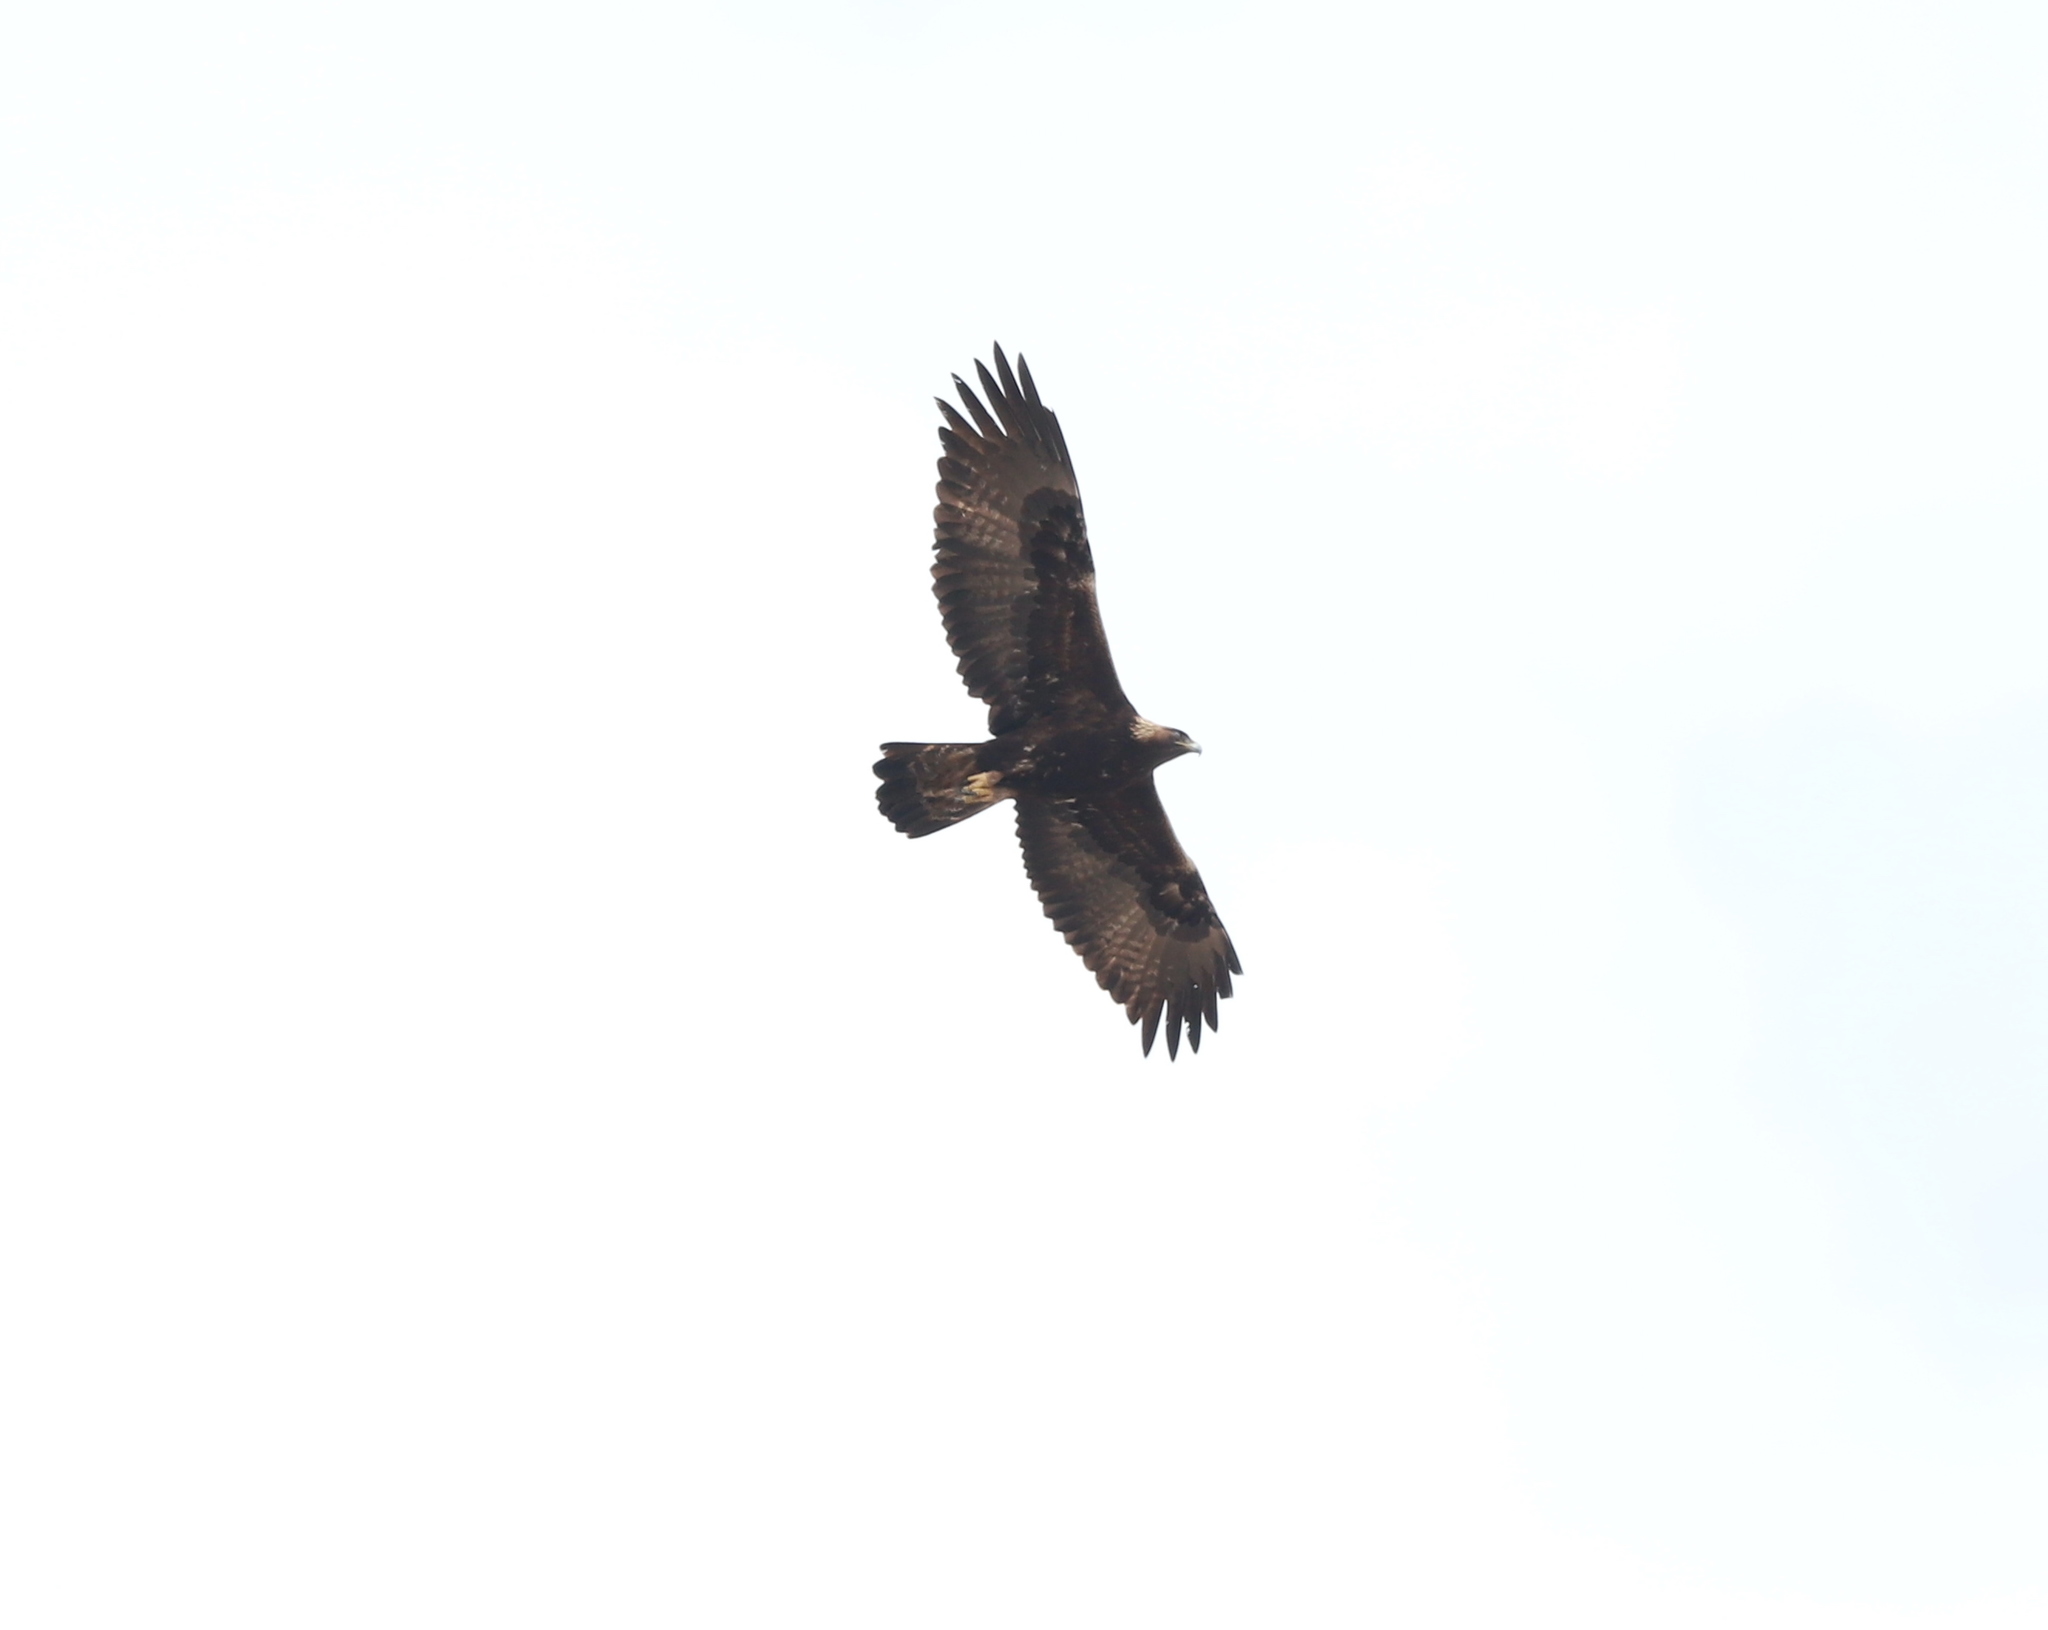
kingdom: Animalia
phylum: Chordata
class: Aves
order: Accipitriformes
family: Accipitridae
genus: Aquila
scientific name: Aquila chrysaetos
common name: Golden eagle
